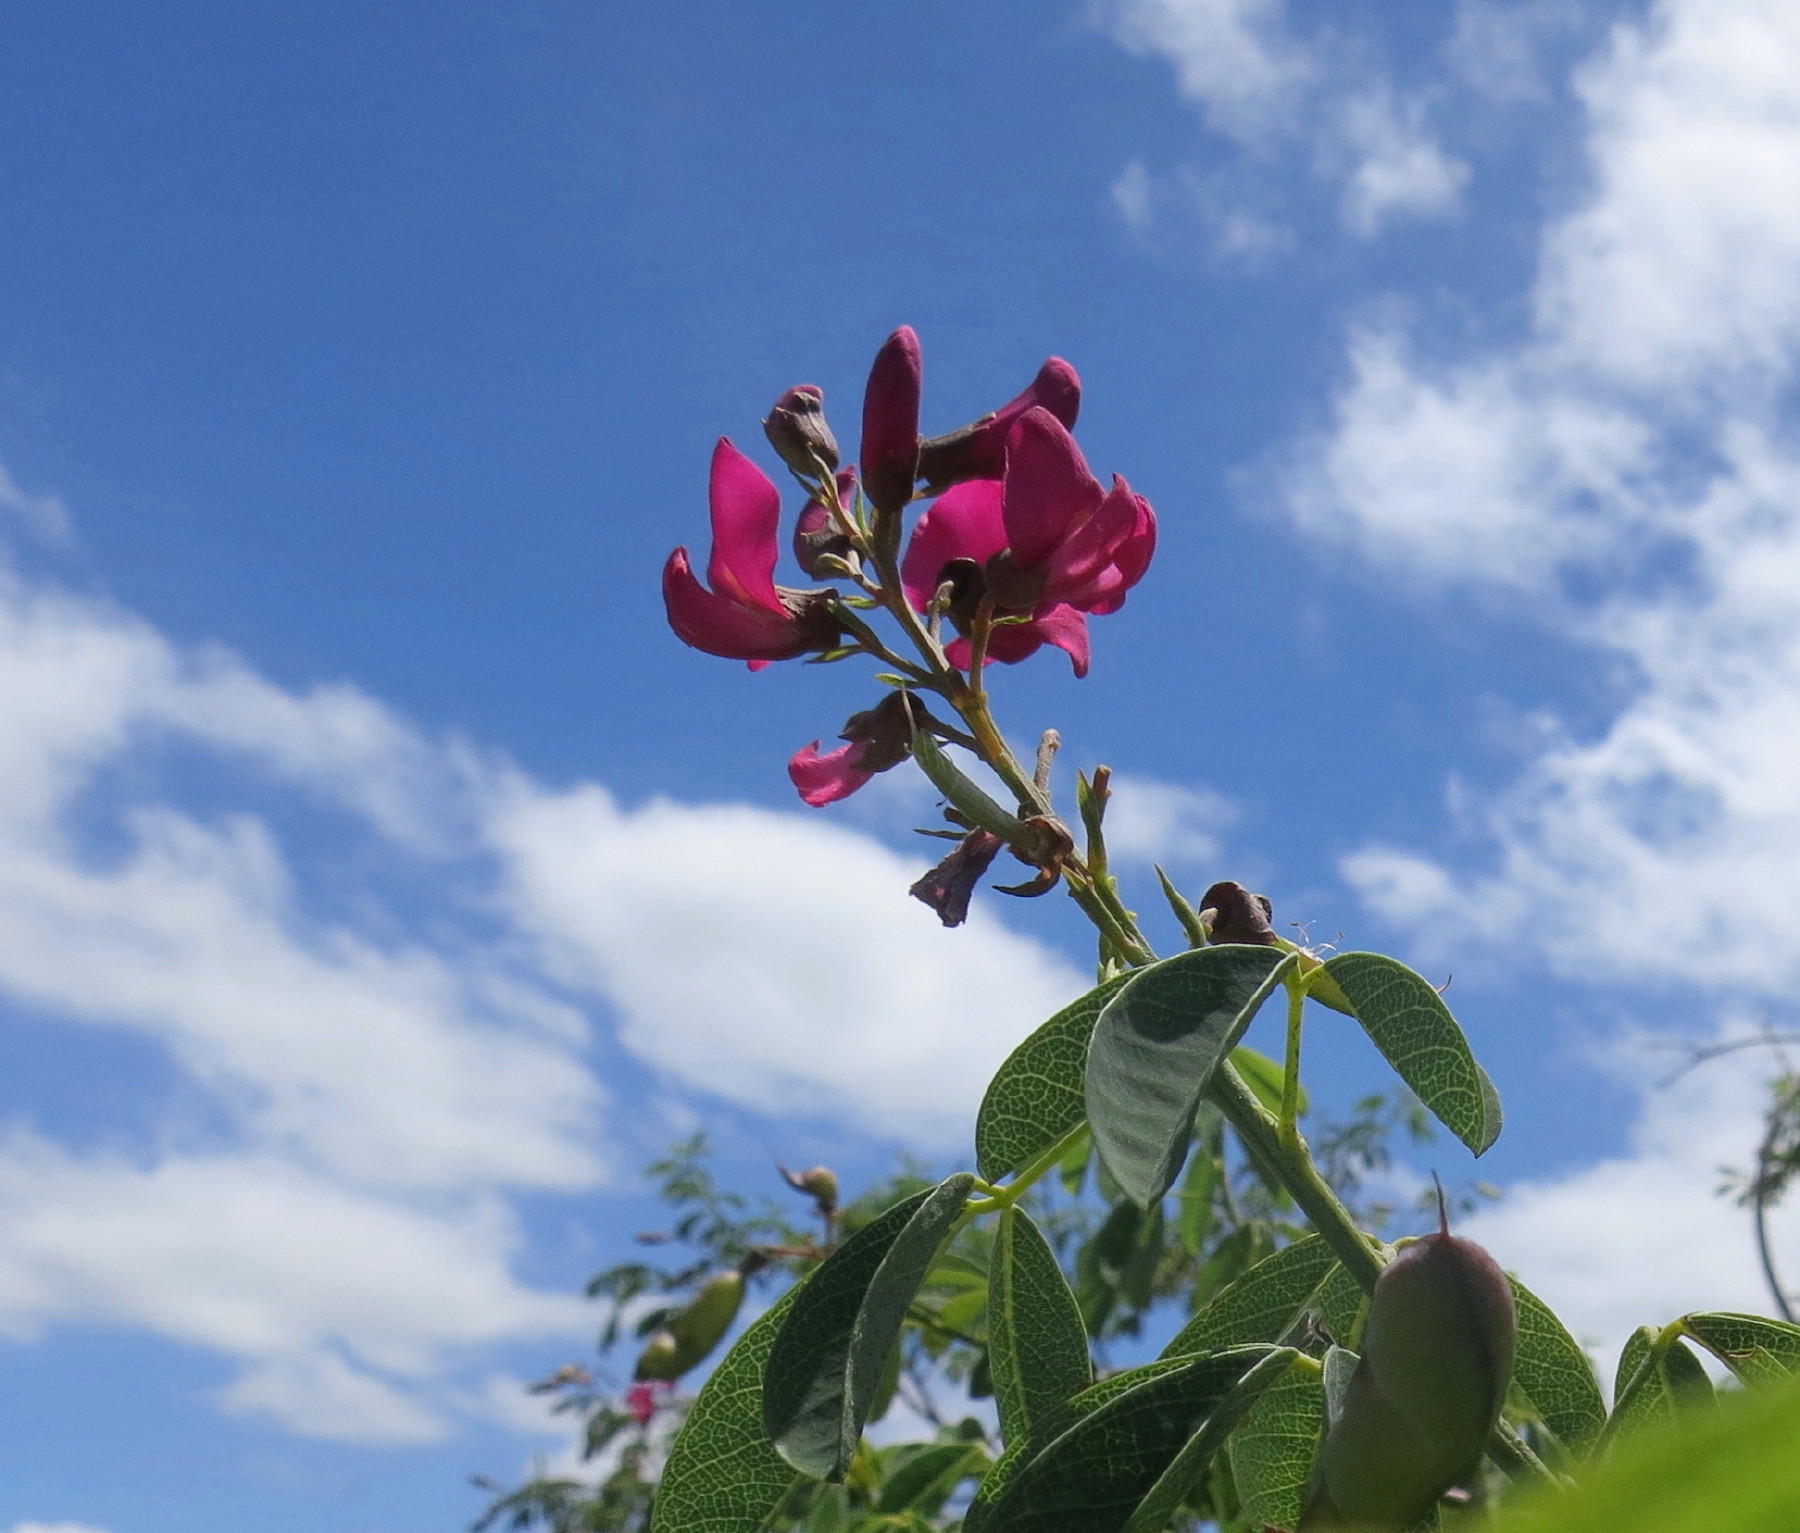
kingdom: Plantae
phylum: Tracheophyta
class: Magnoliopsida
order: Fabales
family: Fabaceae
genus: Hypocalyptus
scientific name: Hypocalyptus coluteoides
